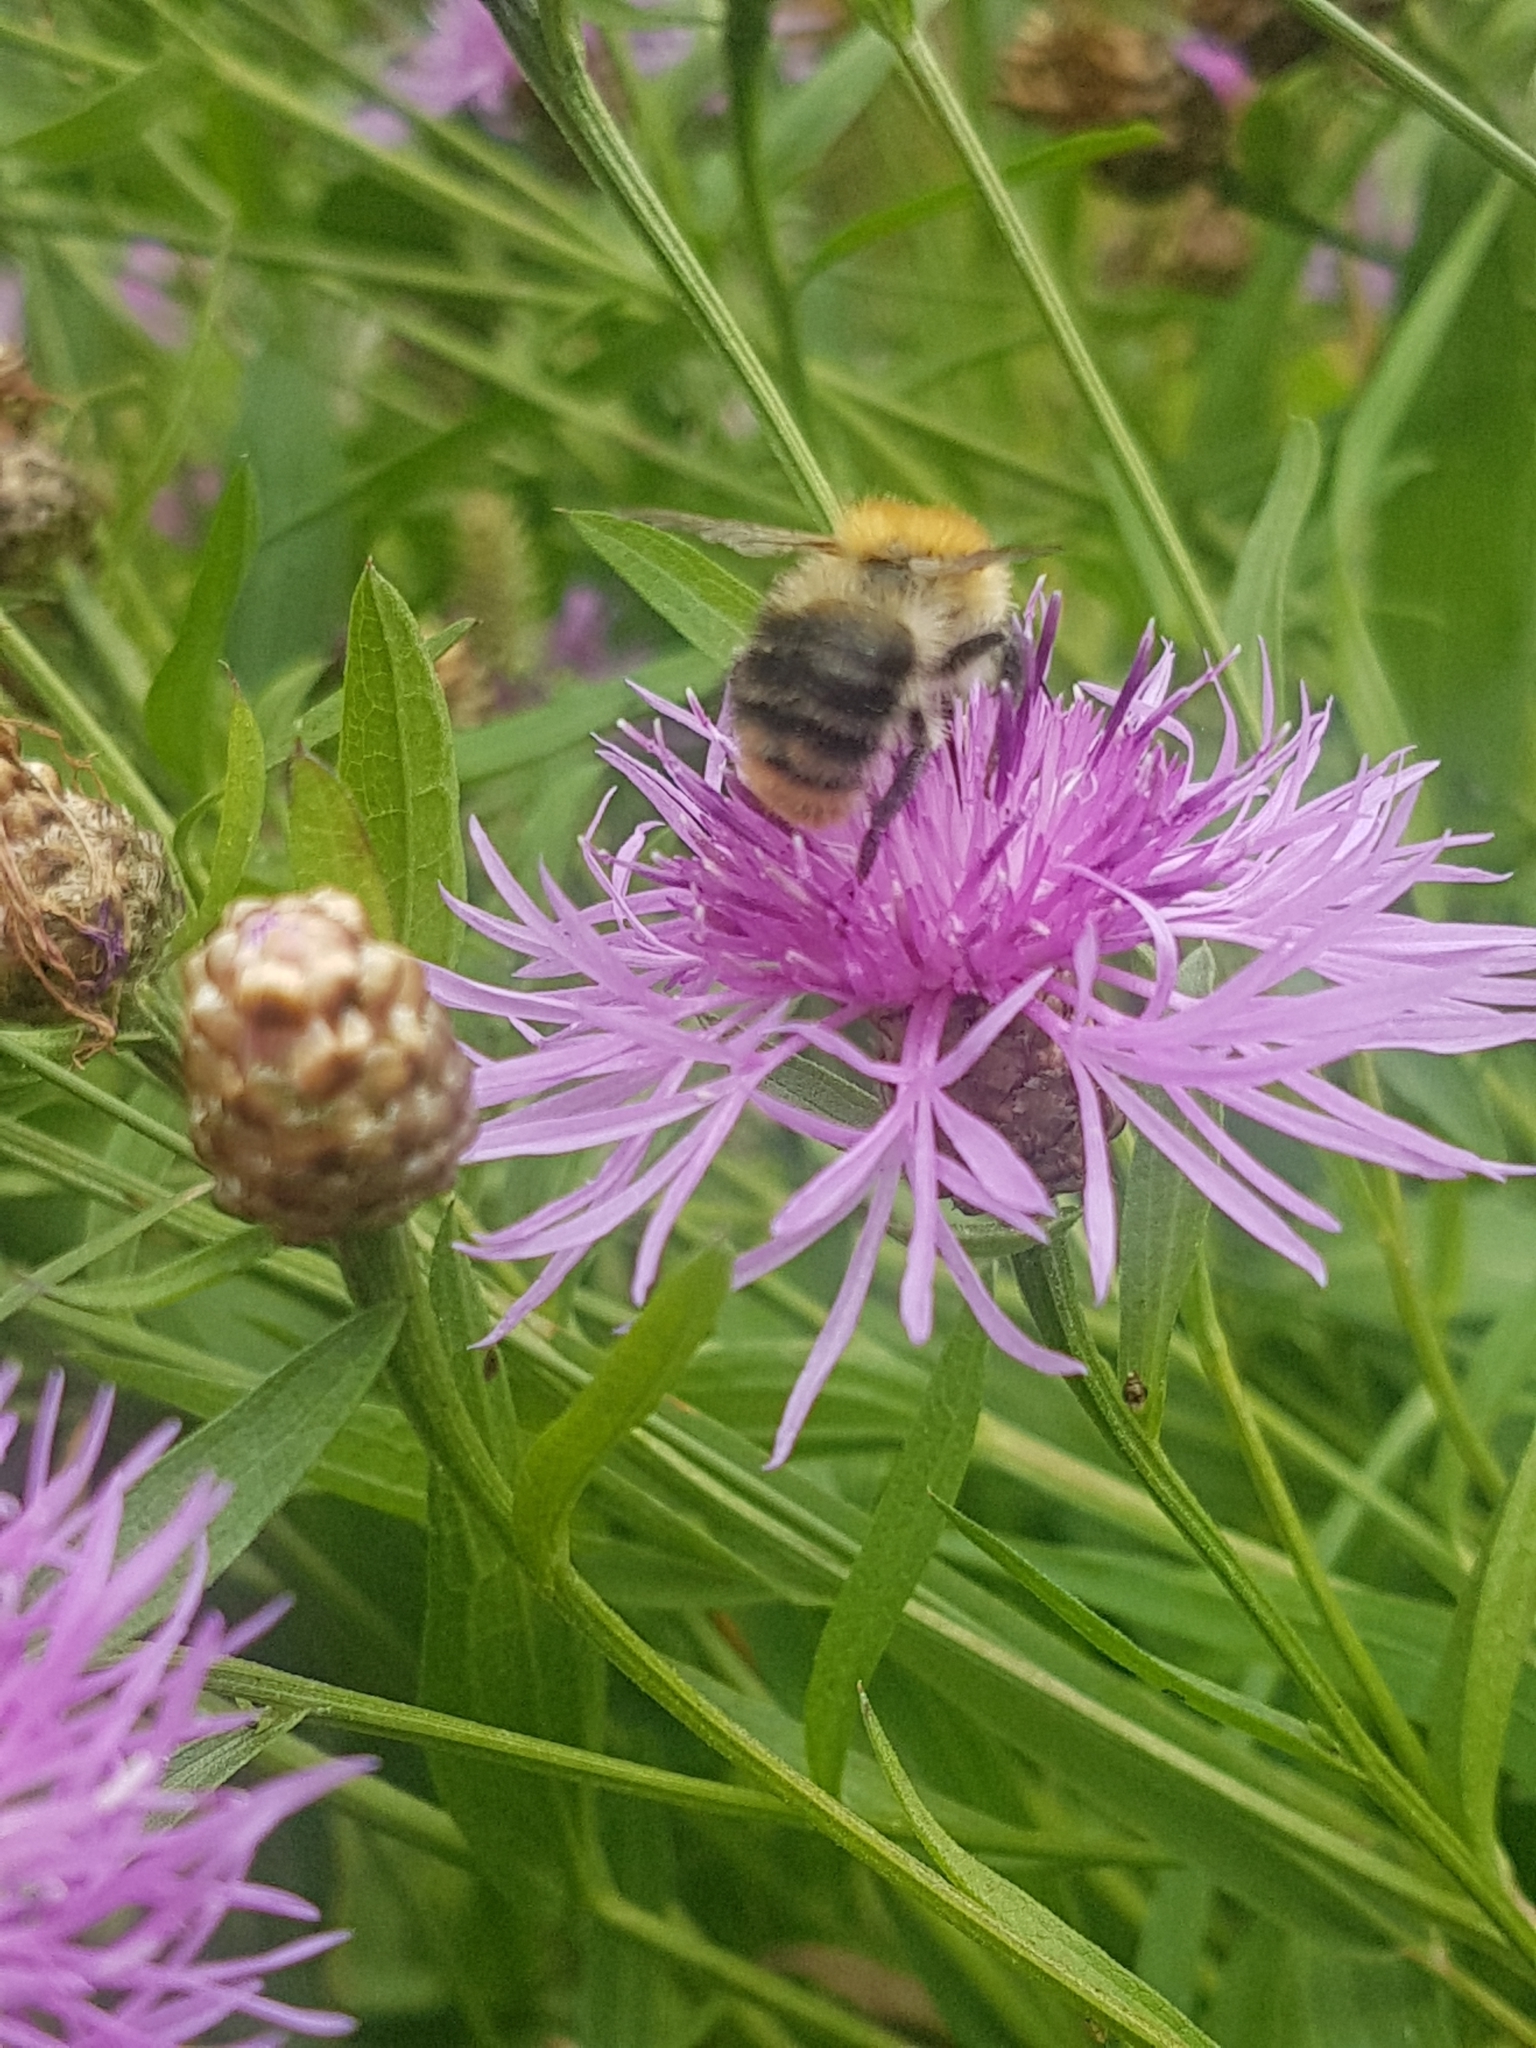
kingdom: Animalia
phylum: Arthropoda
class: Insecta
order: Hymenoptera
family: Apidae
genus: Bombus
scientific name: Bombus pascuorum
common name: Common carder bee
